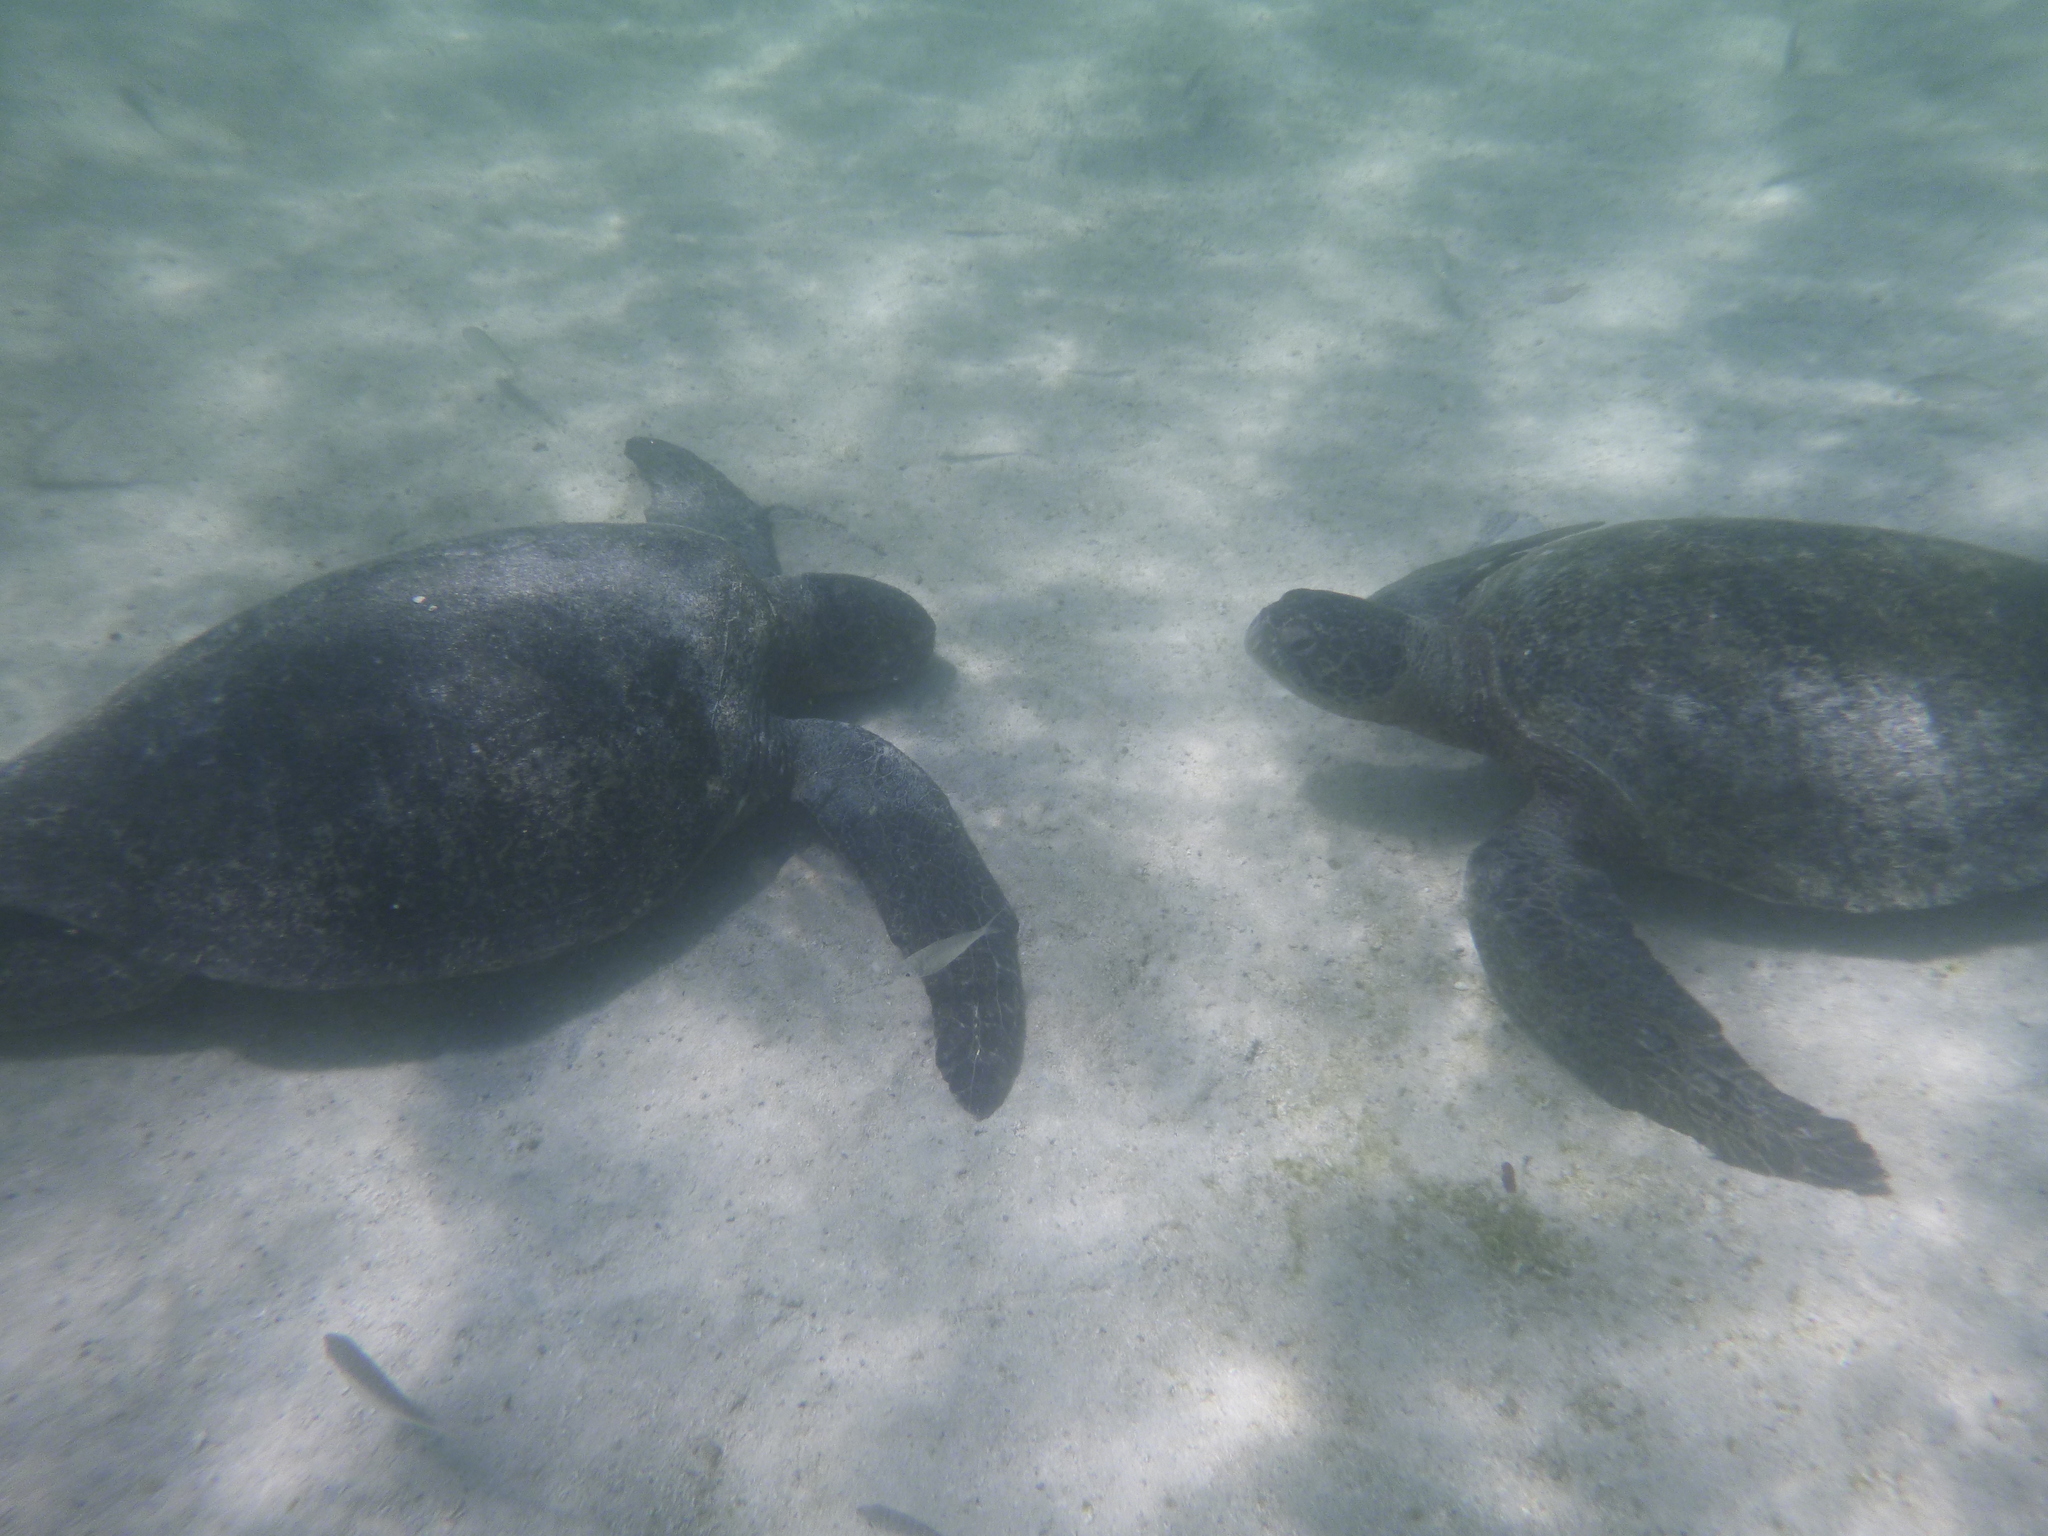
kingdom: Animalia
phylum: Chordata
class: Testudines
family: Cheloniidae
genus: Chelonia
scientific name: Chelonia mydas
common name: Green turtle
